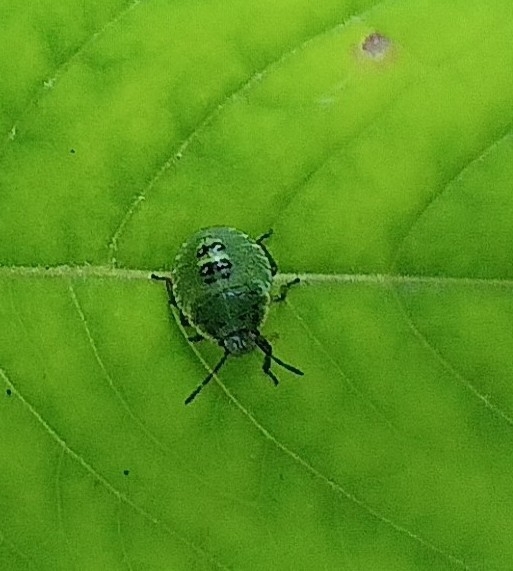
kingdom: Animalia
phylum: Arthropoda
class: Insecta
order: Hemiptera
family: Pentatomidae
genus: Palomena
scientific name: Palomena prasina
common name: Green shieldbug
